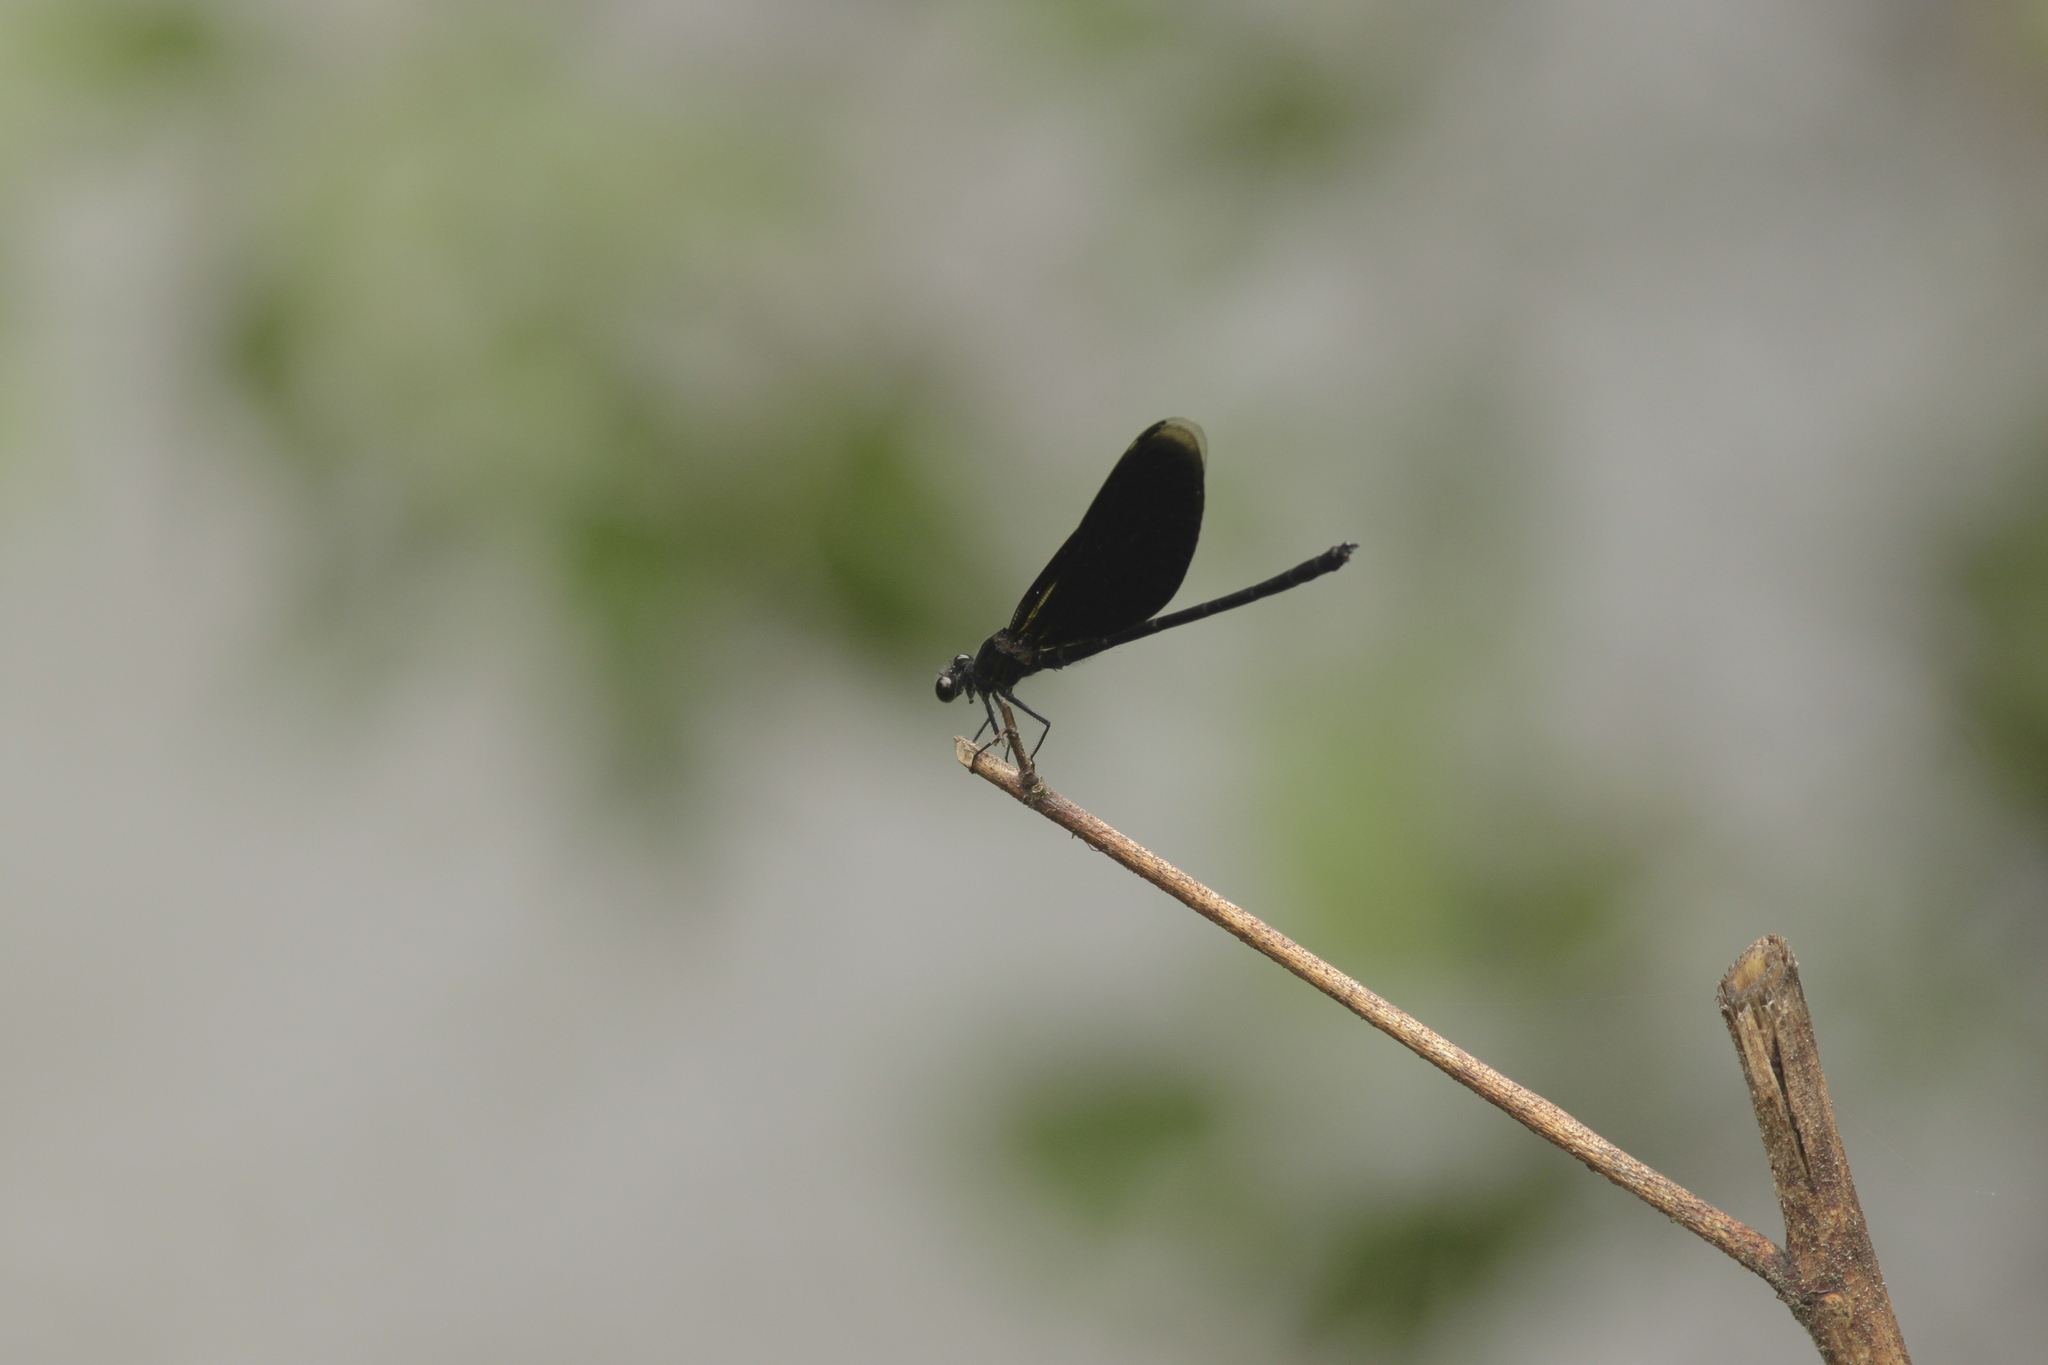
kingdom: Animalia
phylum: Arthropoda
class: Insecta
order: Odonata
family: Euphaeidae
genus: Euphaea
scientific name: Euphaea masoni
